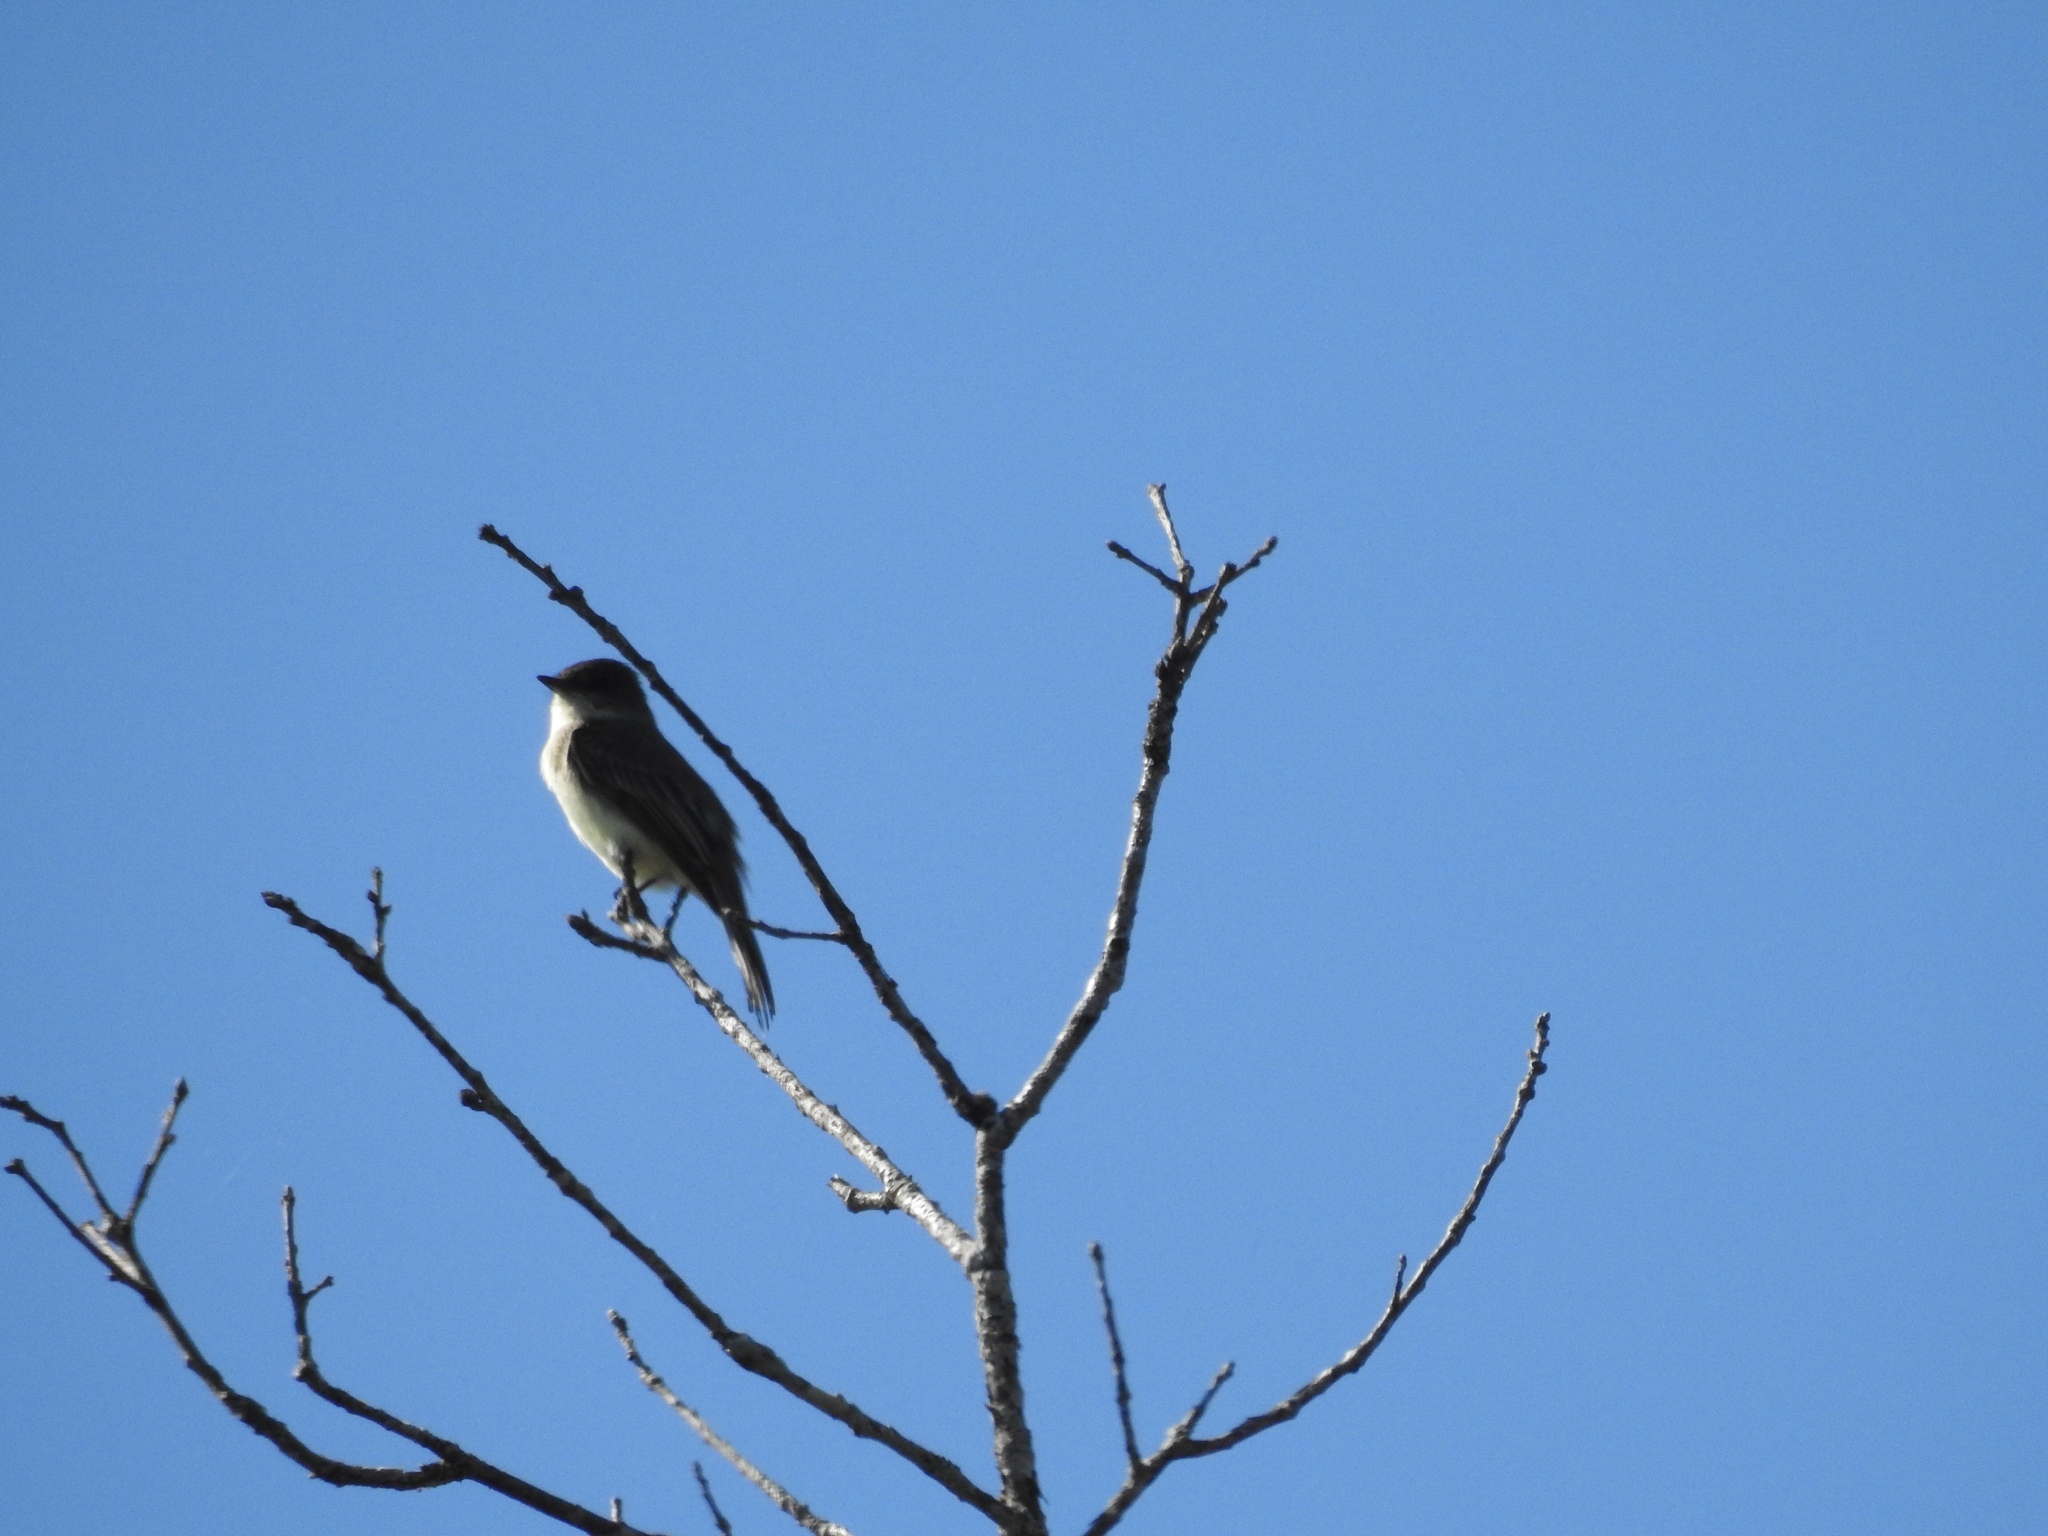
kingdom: Animalia
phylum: Chordata
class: Aves
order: Passeriformes
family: Tyrannidae
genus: Sayornis
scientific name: Sayornis phoebe
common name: Eastern phoebe
